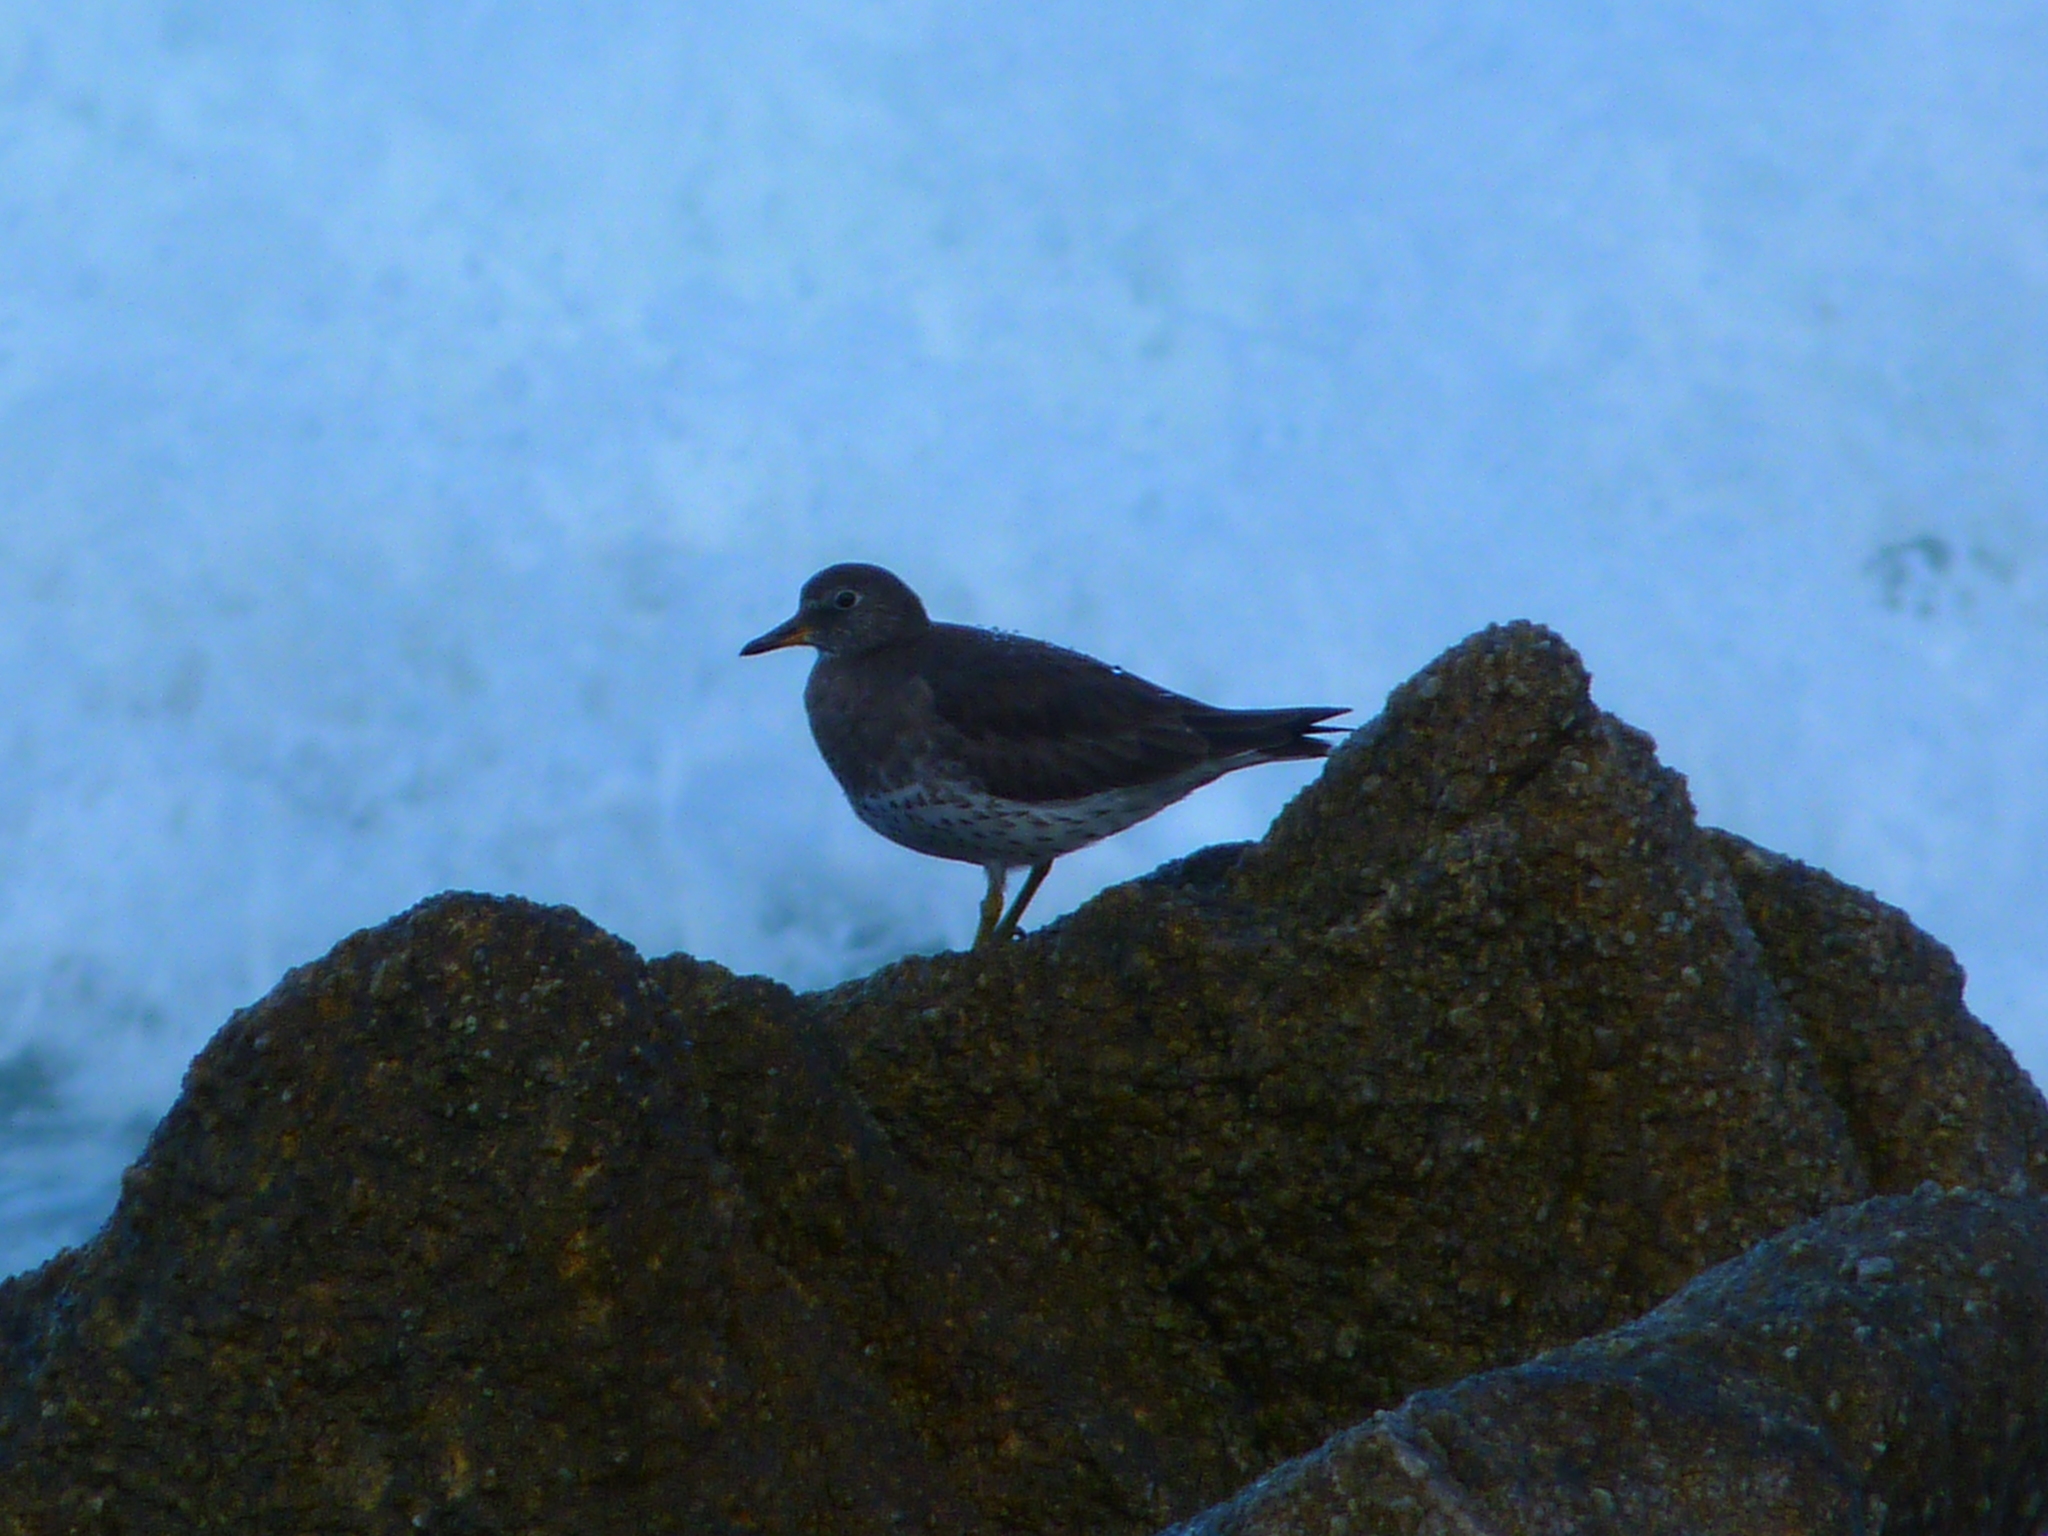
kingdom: Animalia
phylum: Chordata
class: Aves
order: Charadriiformes
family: Scolopacidae
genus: Calidris
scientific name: Calidris virgata
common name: Surfbird
